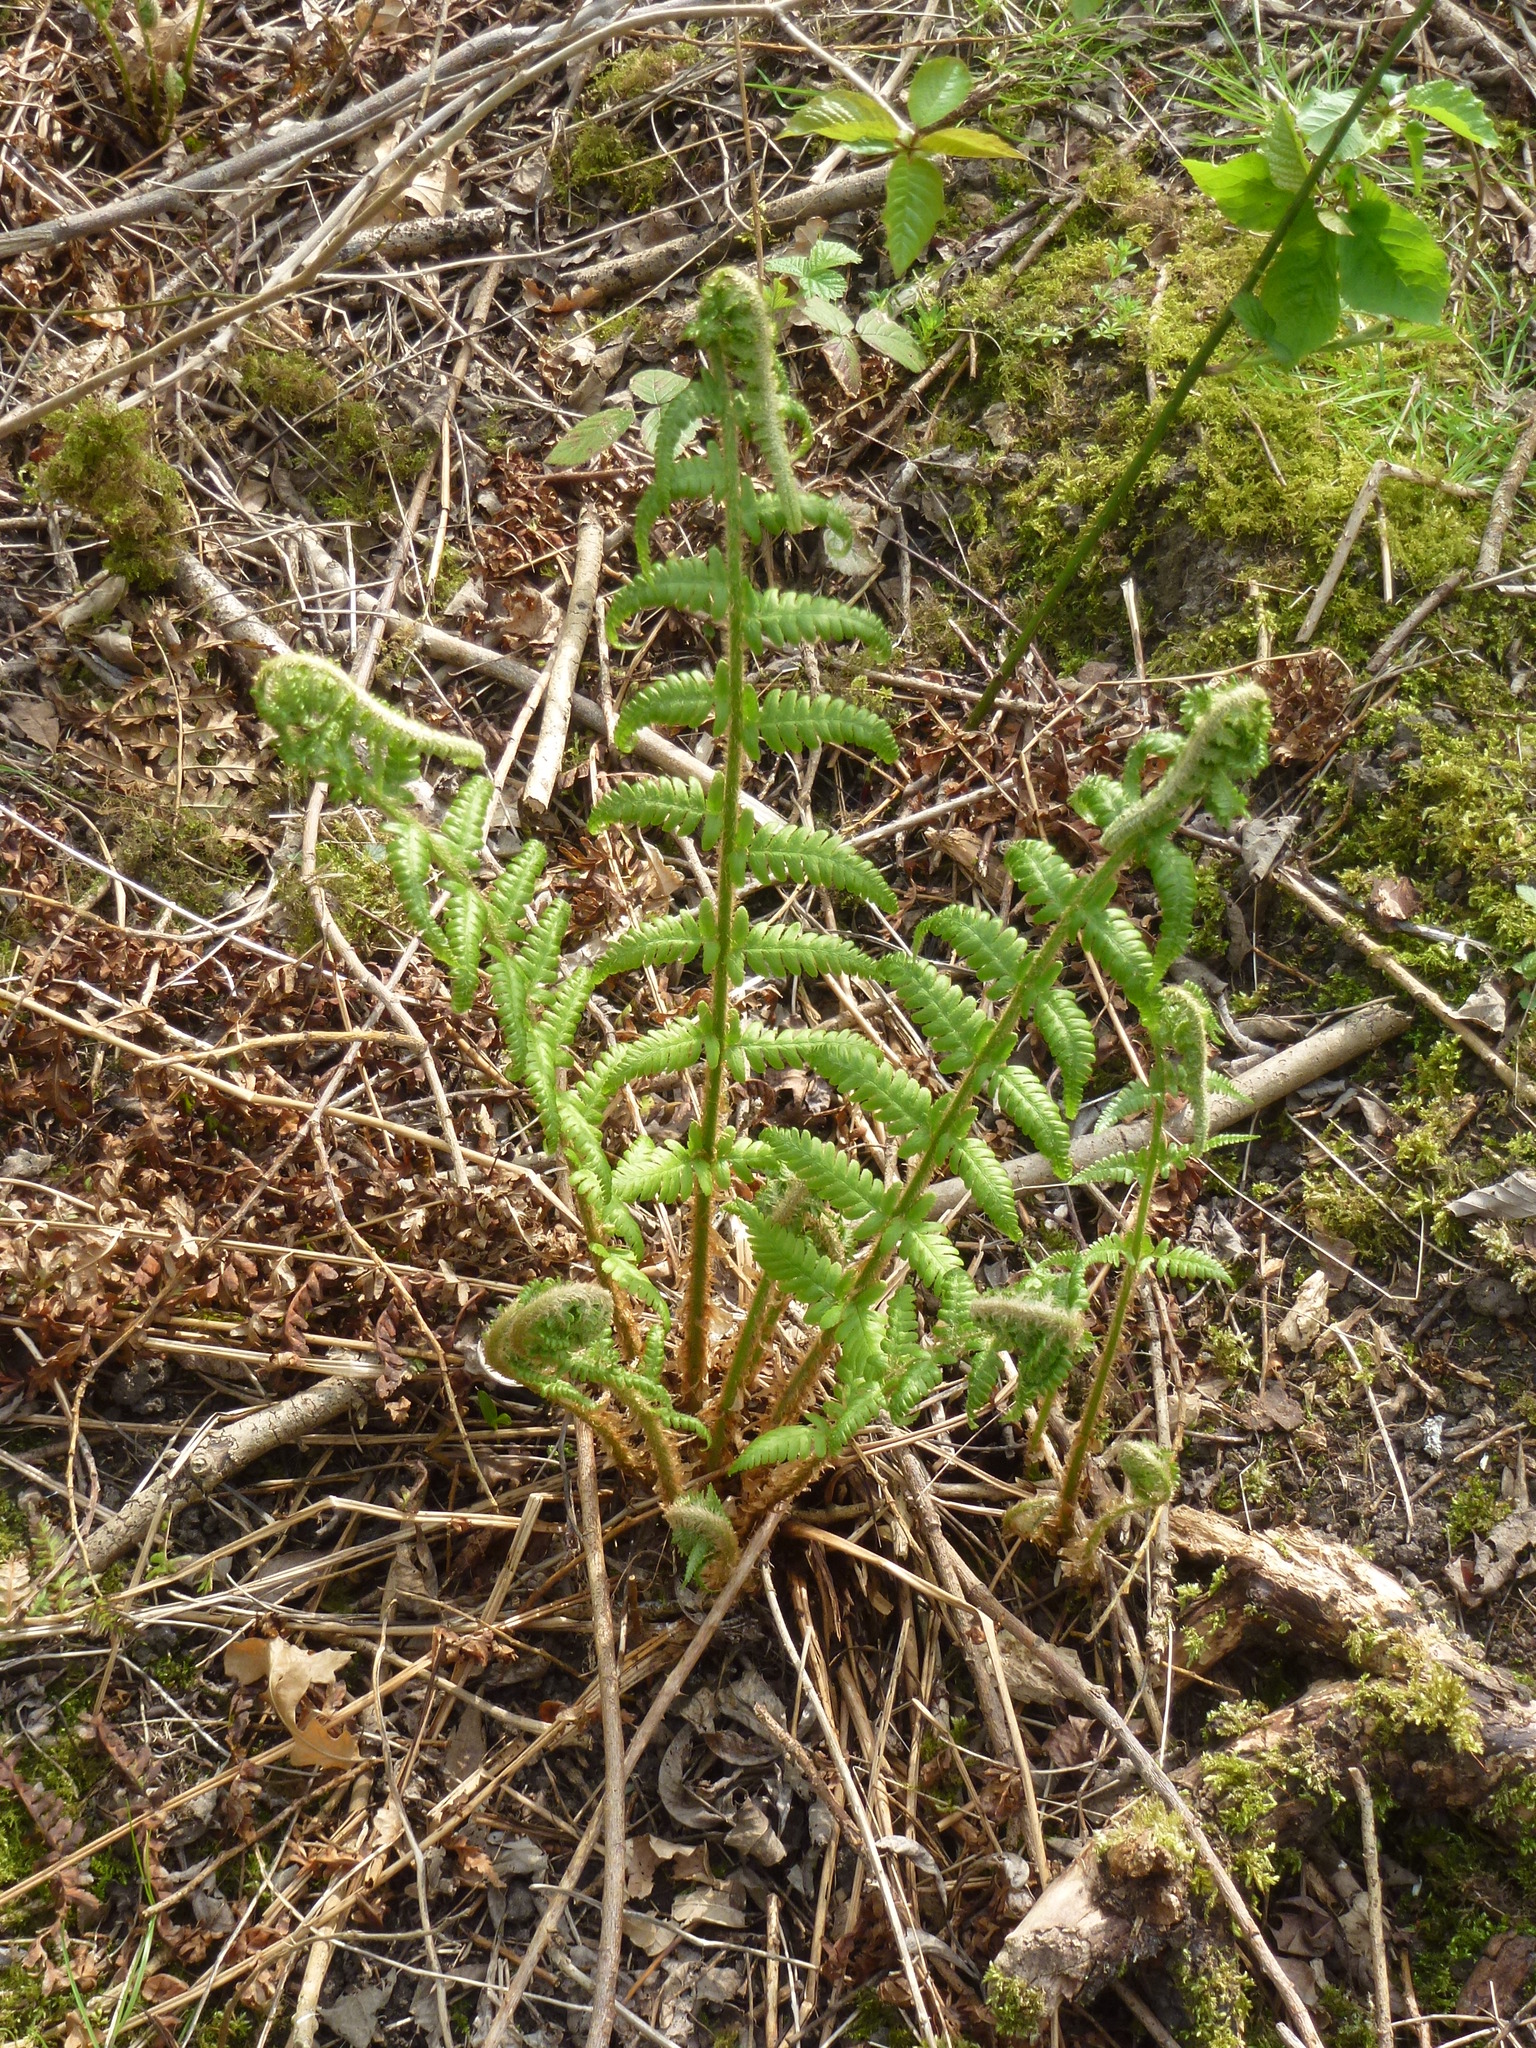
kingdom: Plantae
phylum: Tracheophyta
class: Polypodiopsida
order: Polypodiales
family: Dryopteridaceae
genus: Dryopteris
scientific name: Dryopteris filix-mas
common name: Male fern
